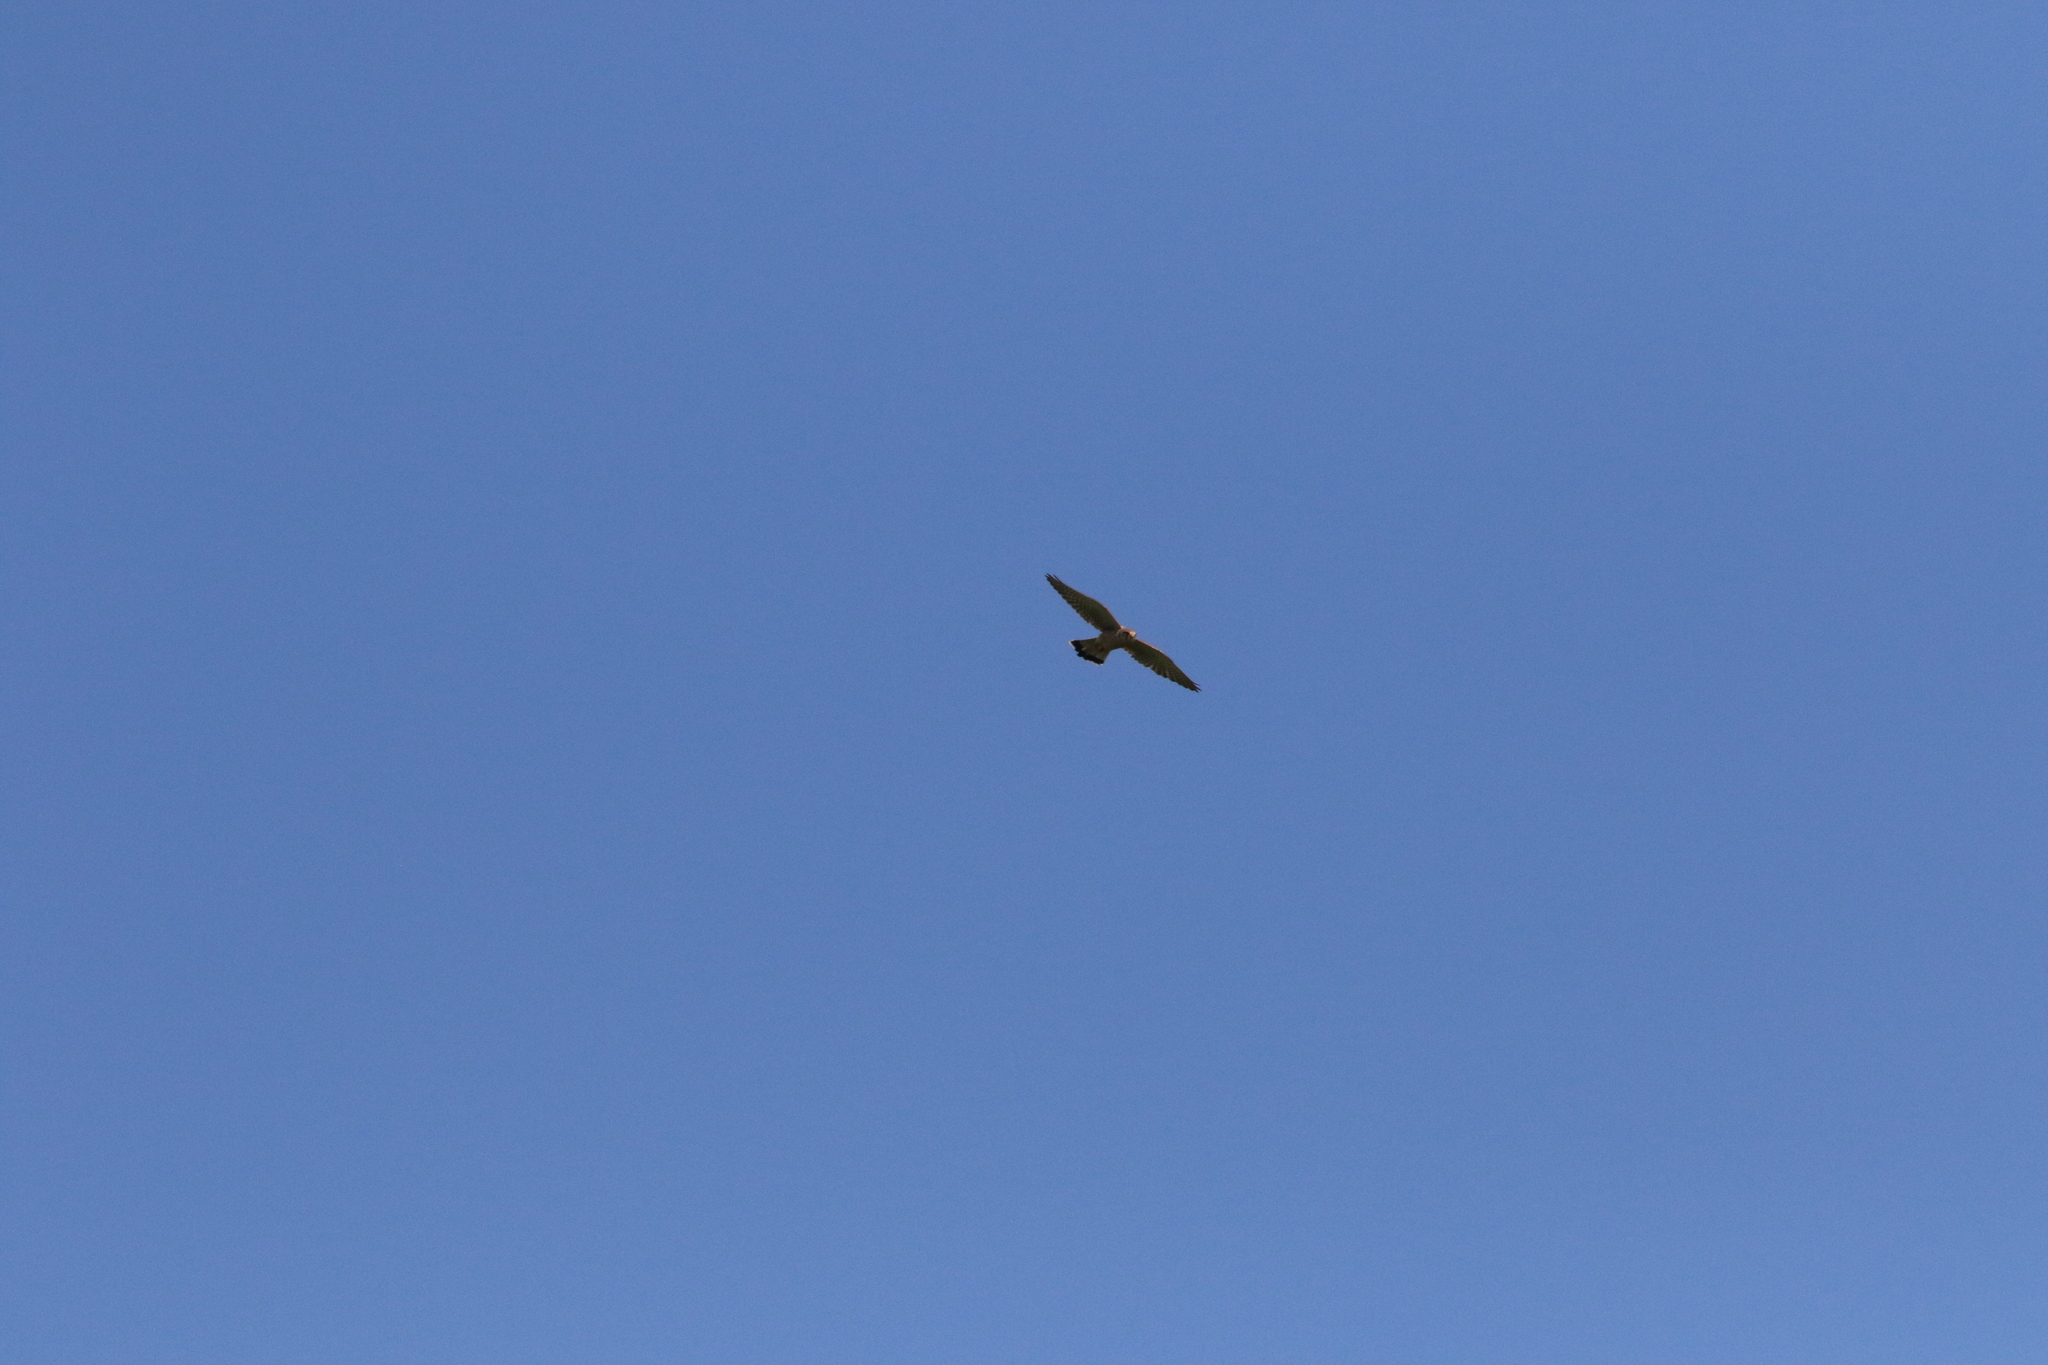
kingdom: Animalia
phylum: Chordata
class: Aves
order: Falconiformes
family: Falconidae
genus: Falco
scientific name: Falco tinnunculus
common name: Common kestrel
